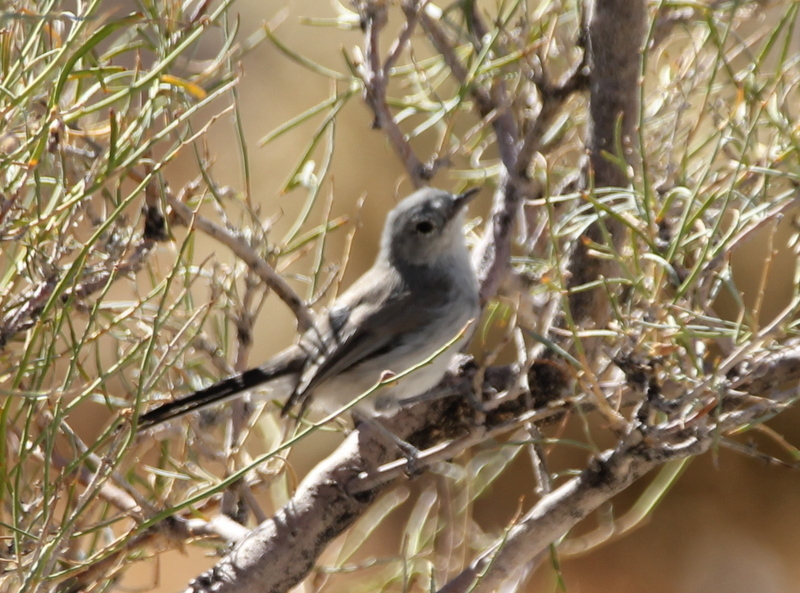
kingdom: Animalia
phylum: Chordata
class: Aves
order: Passeriformes
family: Polioptilidae
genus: Polioptila
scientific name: Polioptila melanura
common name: Black-tailed gnatcatcher
